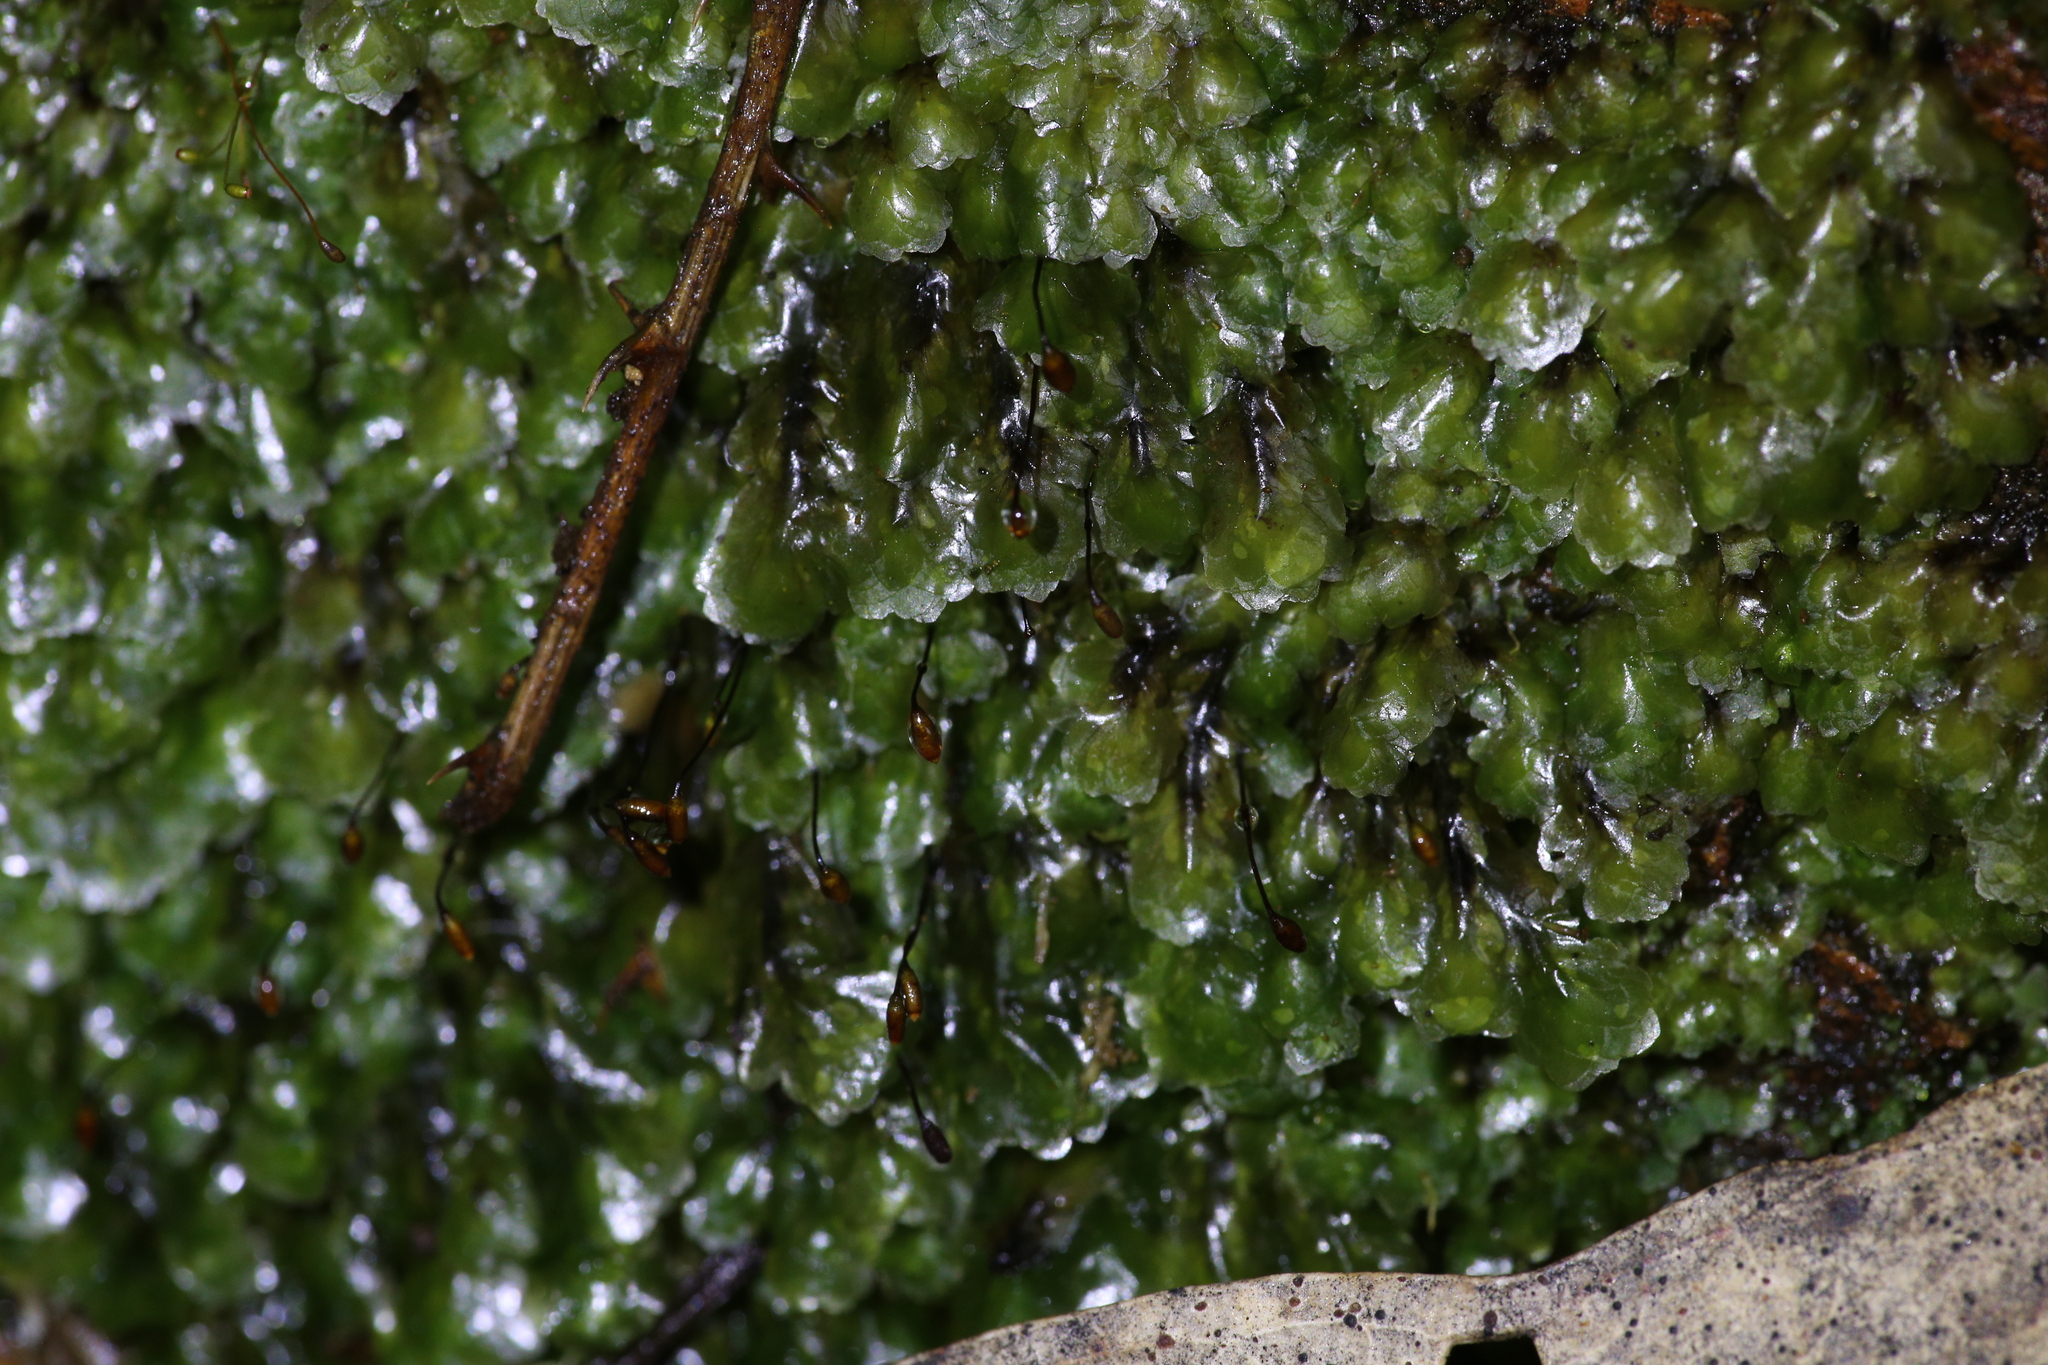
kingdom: Plantae
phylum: Bryophyta
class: Bryopsida
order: Hookeriales
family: Daltoniaceae
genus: Achrophyllum
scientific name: Achrophyllum dentatum
